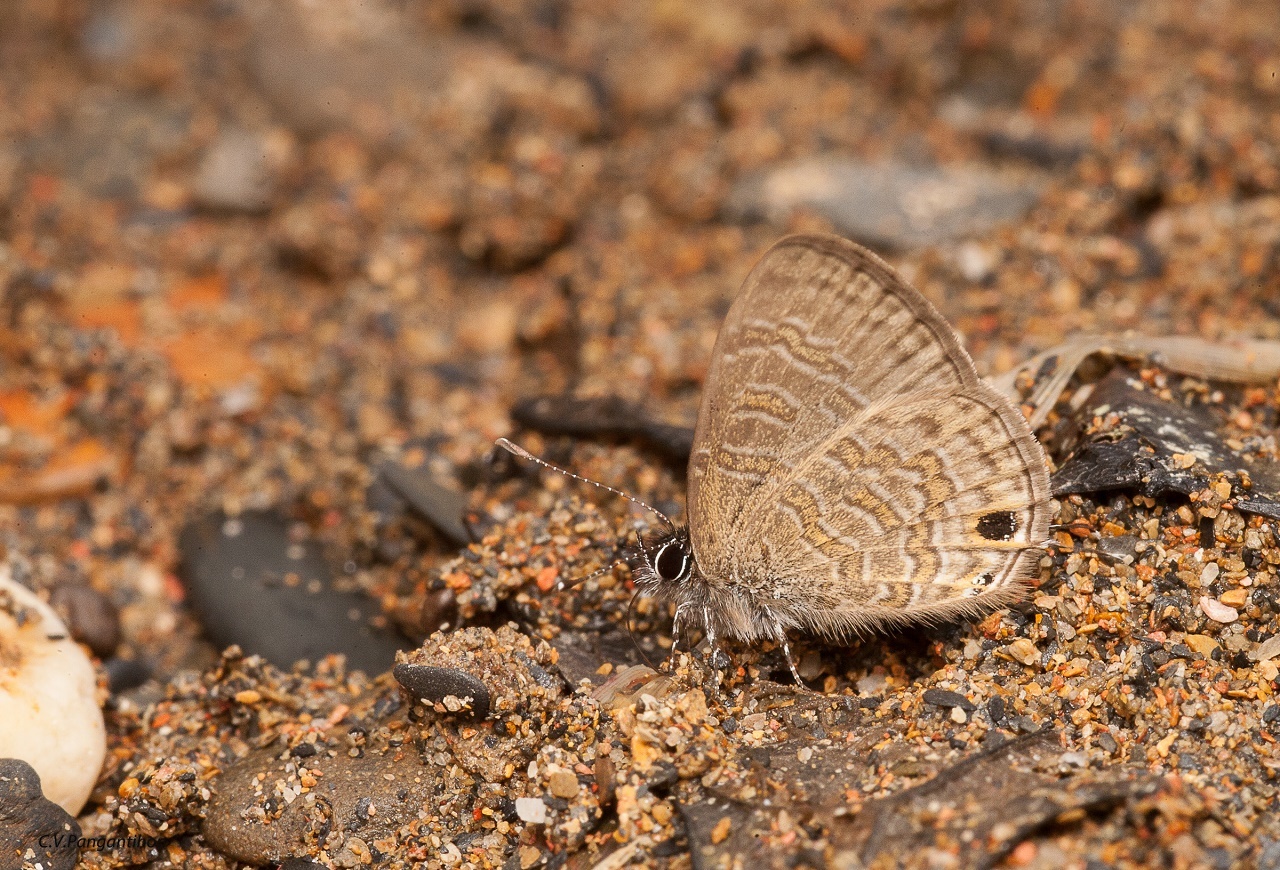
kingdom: Animalia
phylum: Arthropoda
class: Insecta
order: Lepidoptera
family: Lycaenidae
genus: Prosotas
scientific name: Prosotas nora
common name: Common line blue
